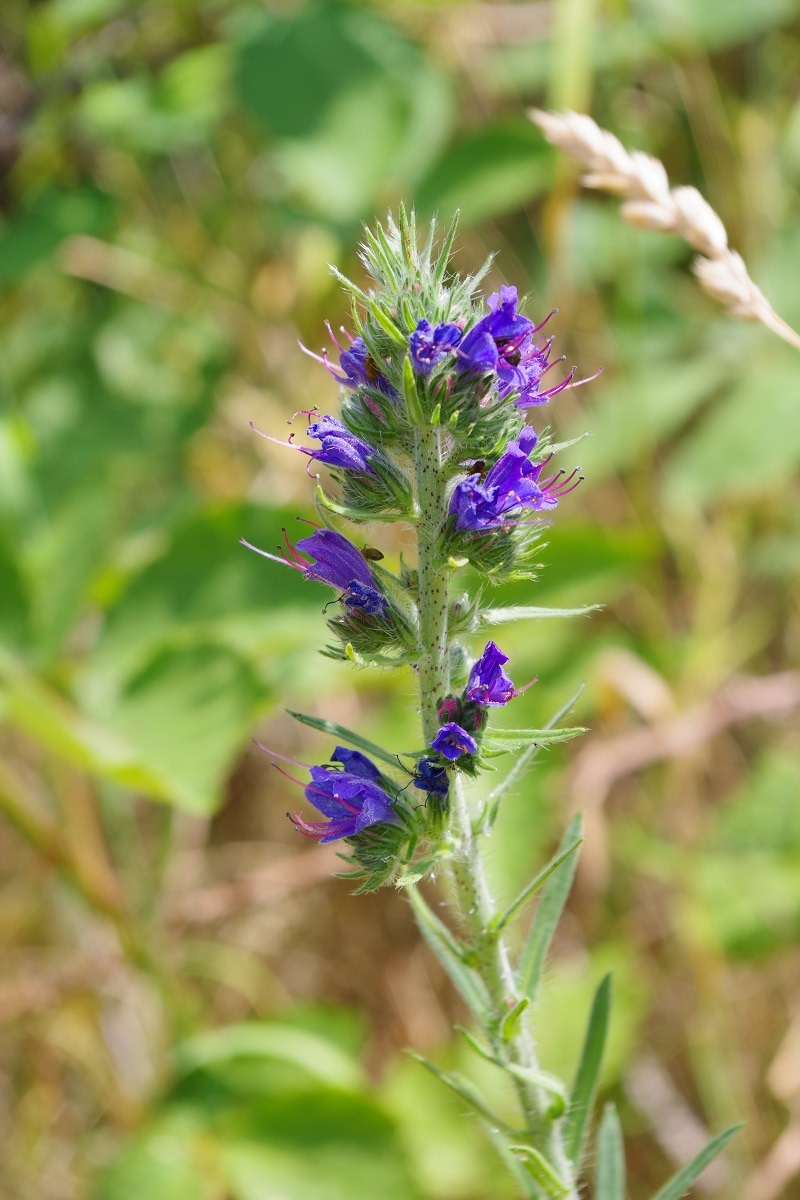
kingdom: Plantae
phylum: Tracheophyta
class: Magnoliopsida
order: Boraginales
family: Boraginaceae
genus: Echium
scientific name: Echium vulgare
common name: Common viper's bugloss
